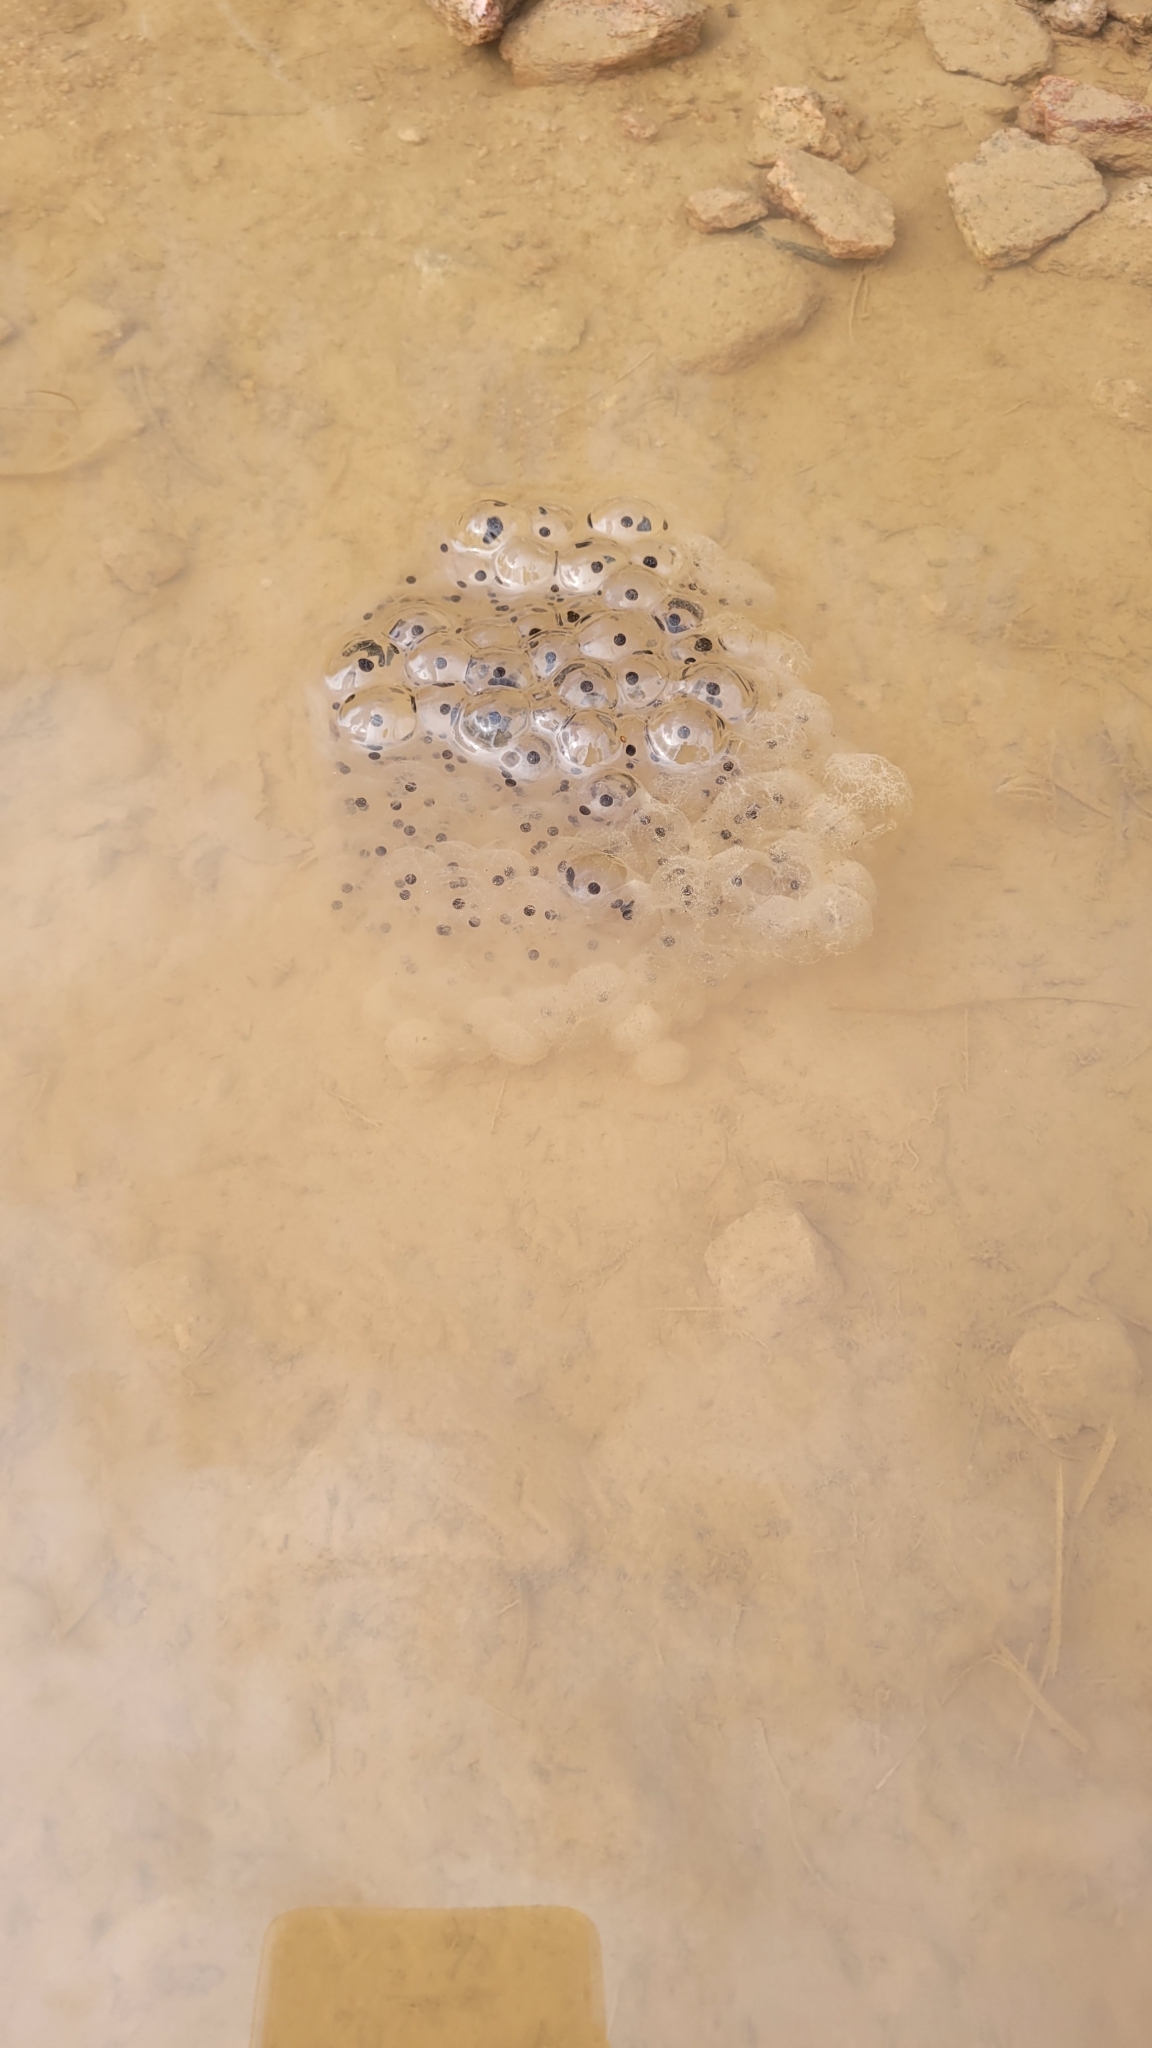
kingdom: Animalia
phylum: Chordata
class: Amphibia
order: Anura
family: Ranidae
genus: Rana
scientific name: Rana temporaria
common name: Common frog
